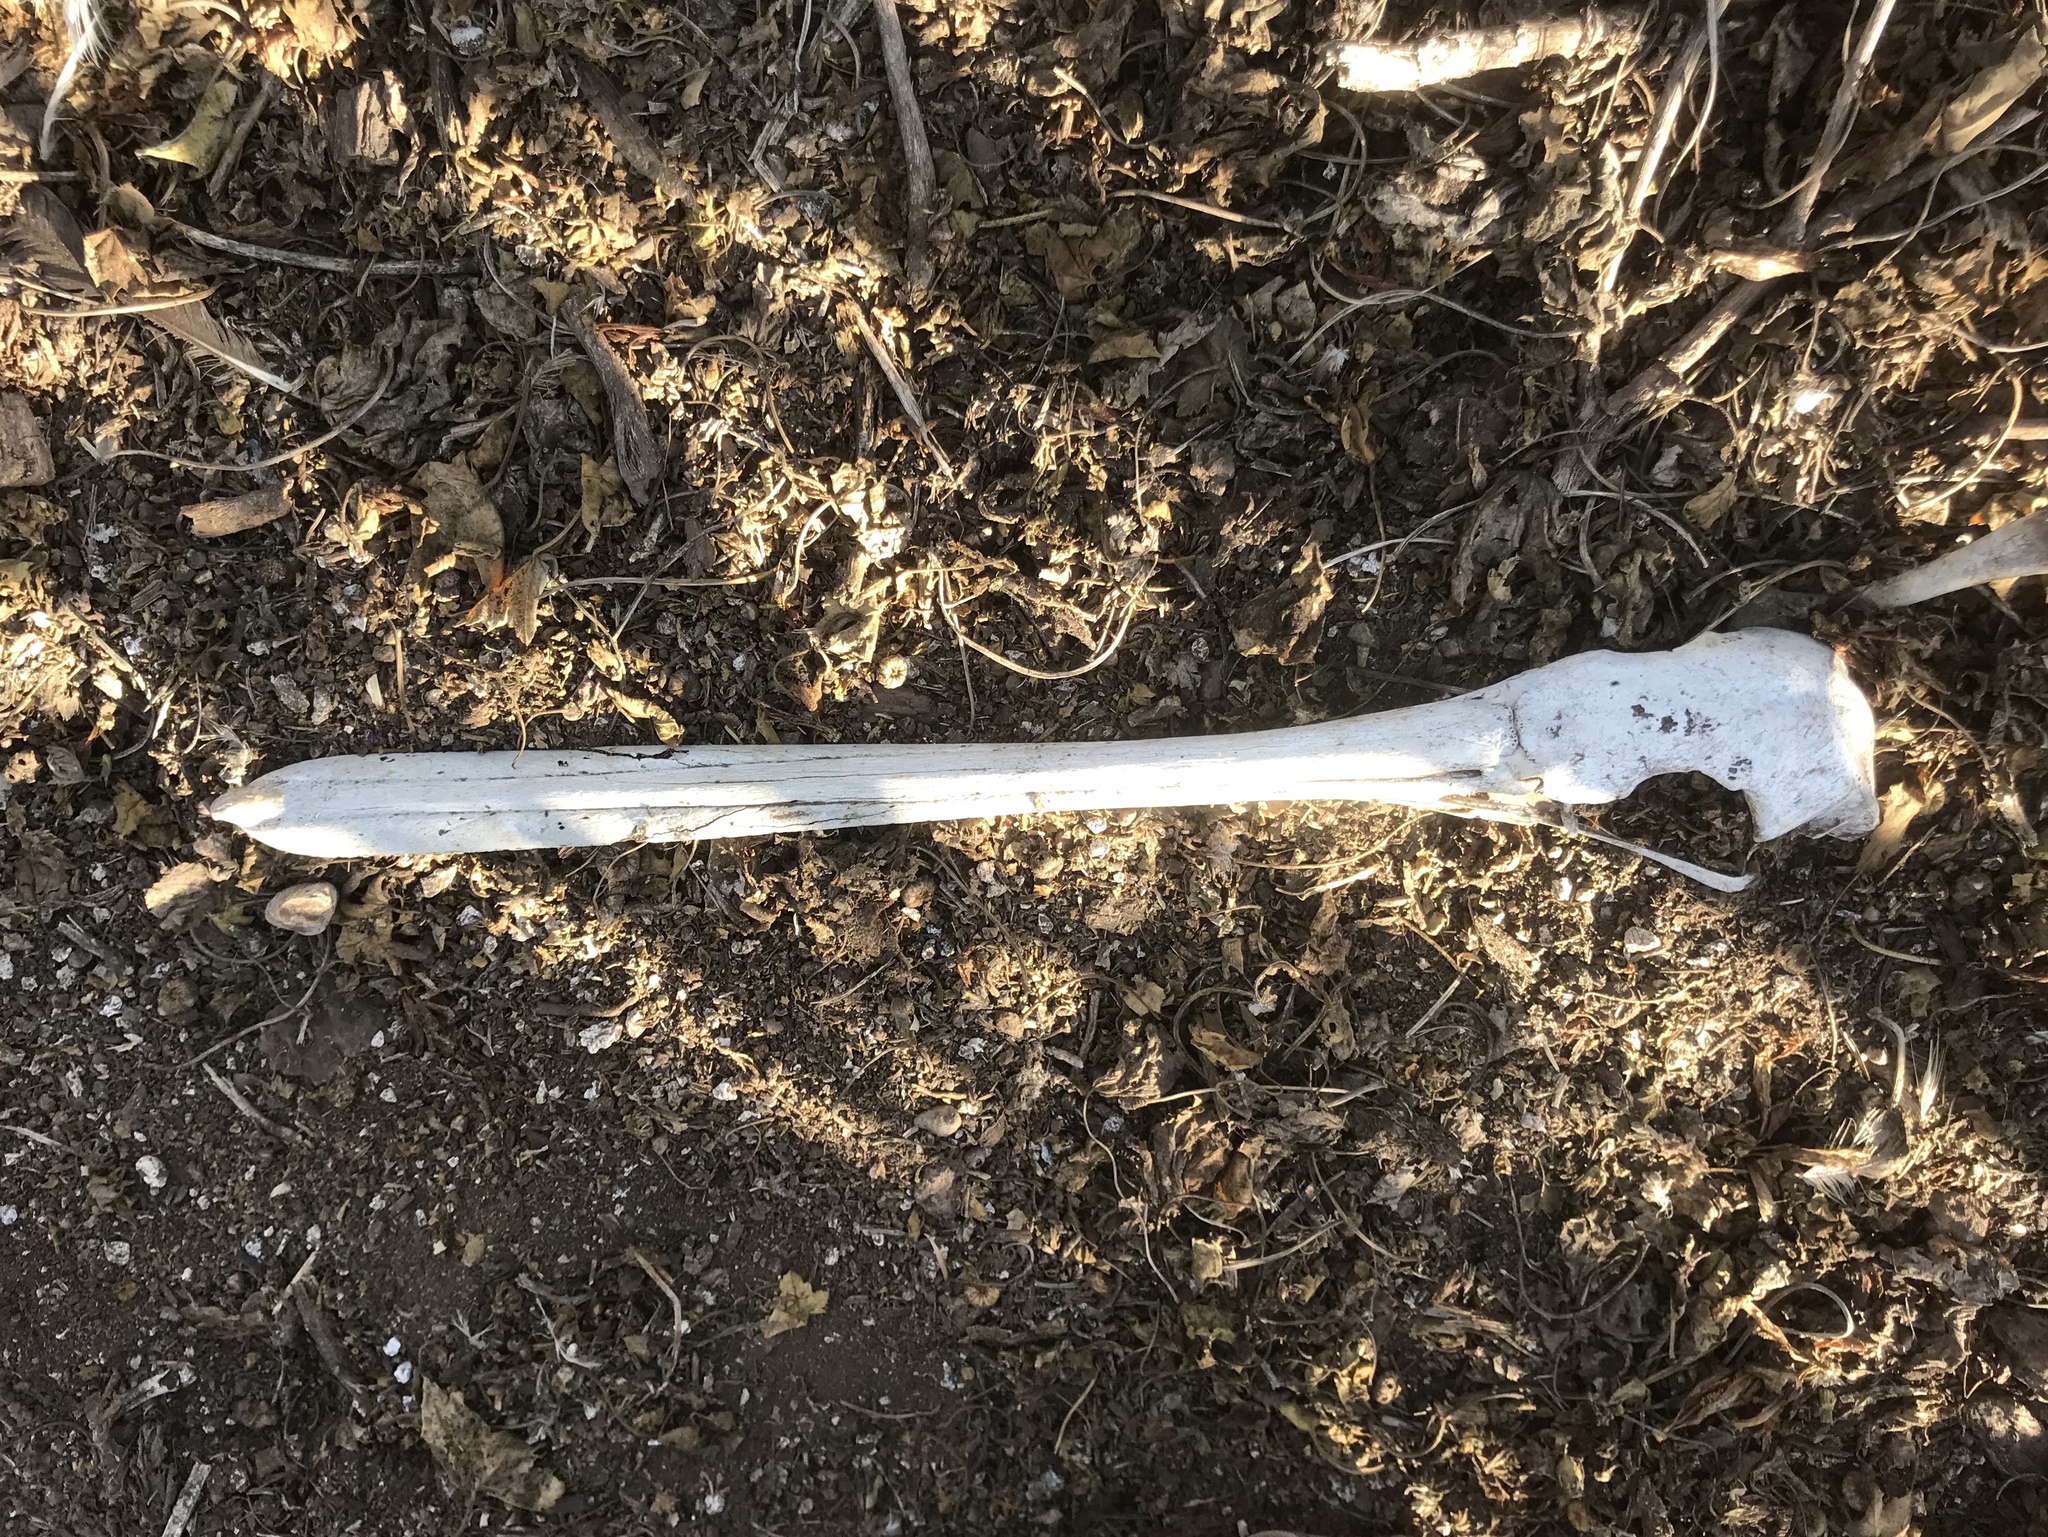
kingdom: Animalia
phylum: Chordata
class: Aves
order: Pelecaniformes
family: Pelecanidae
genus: Pelecanus
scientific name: Pelecanus occidentalis
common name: Brown pelican
